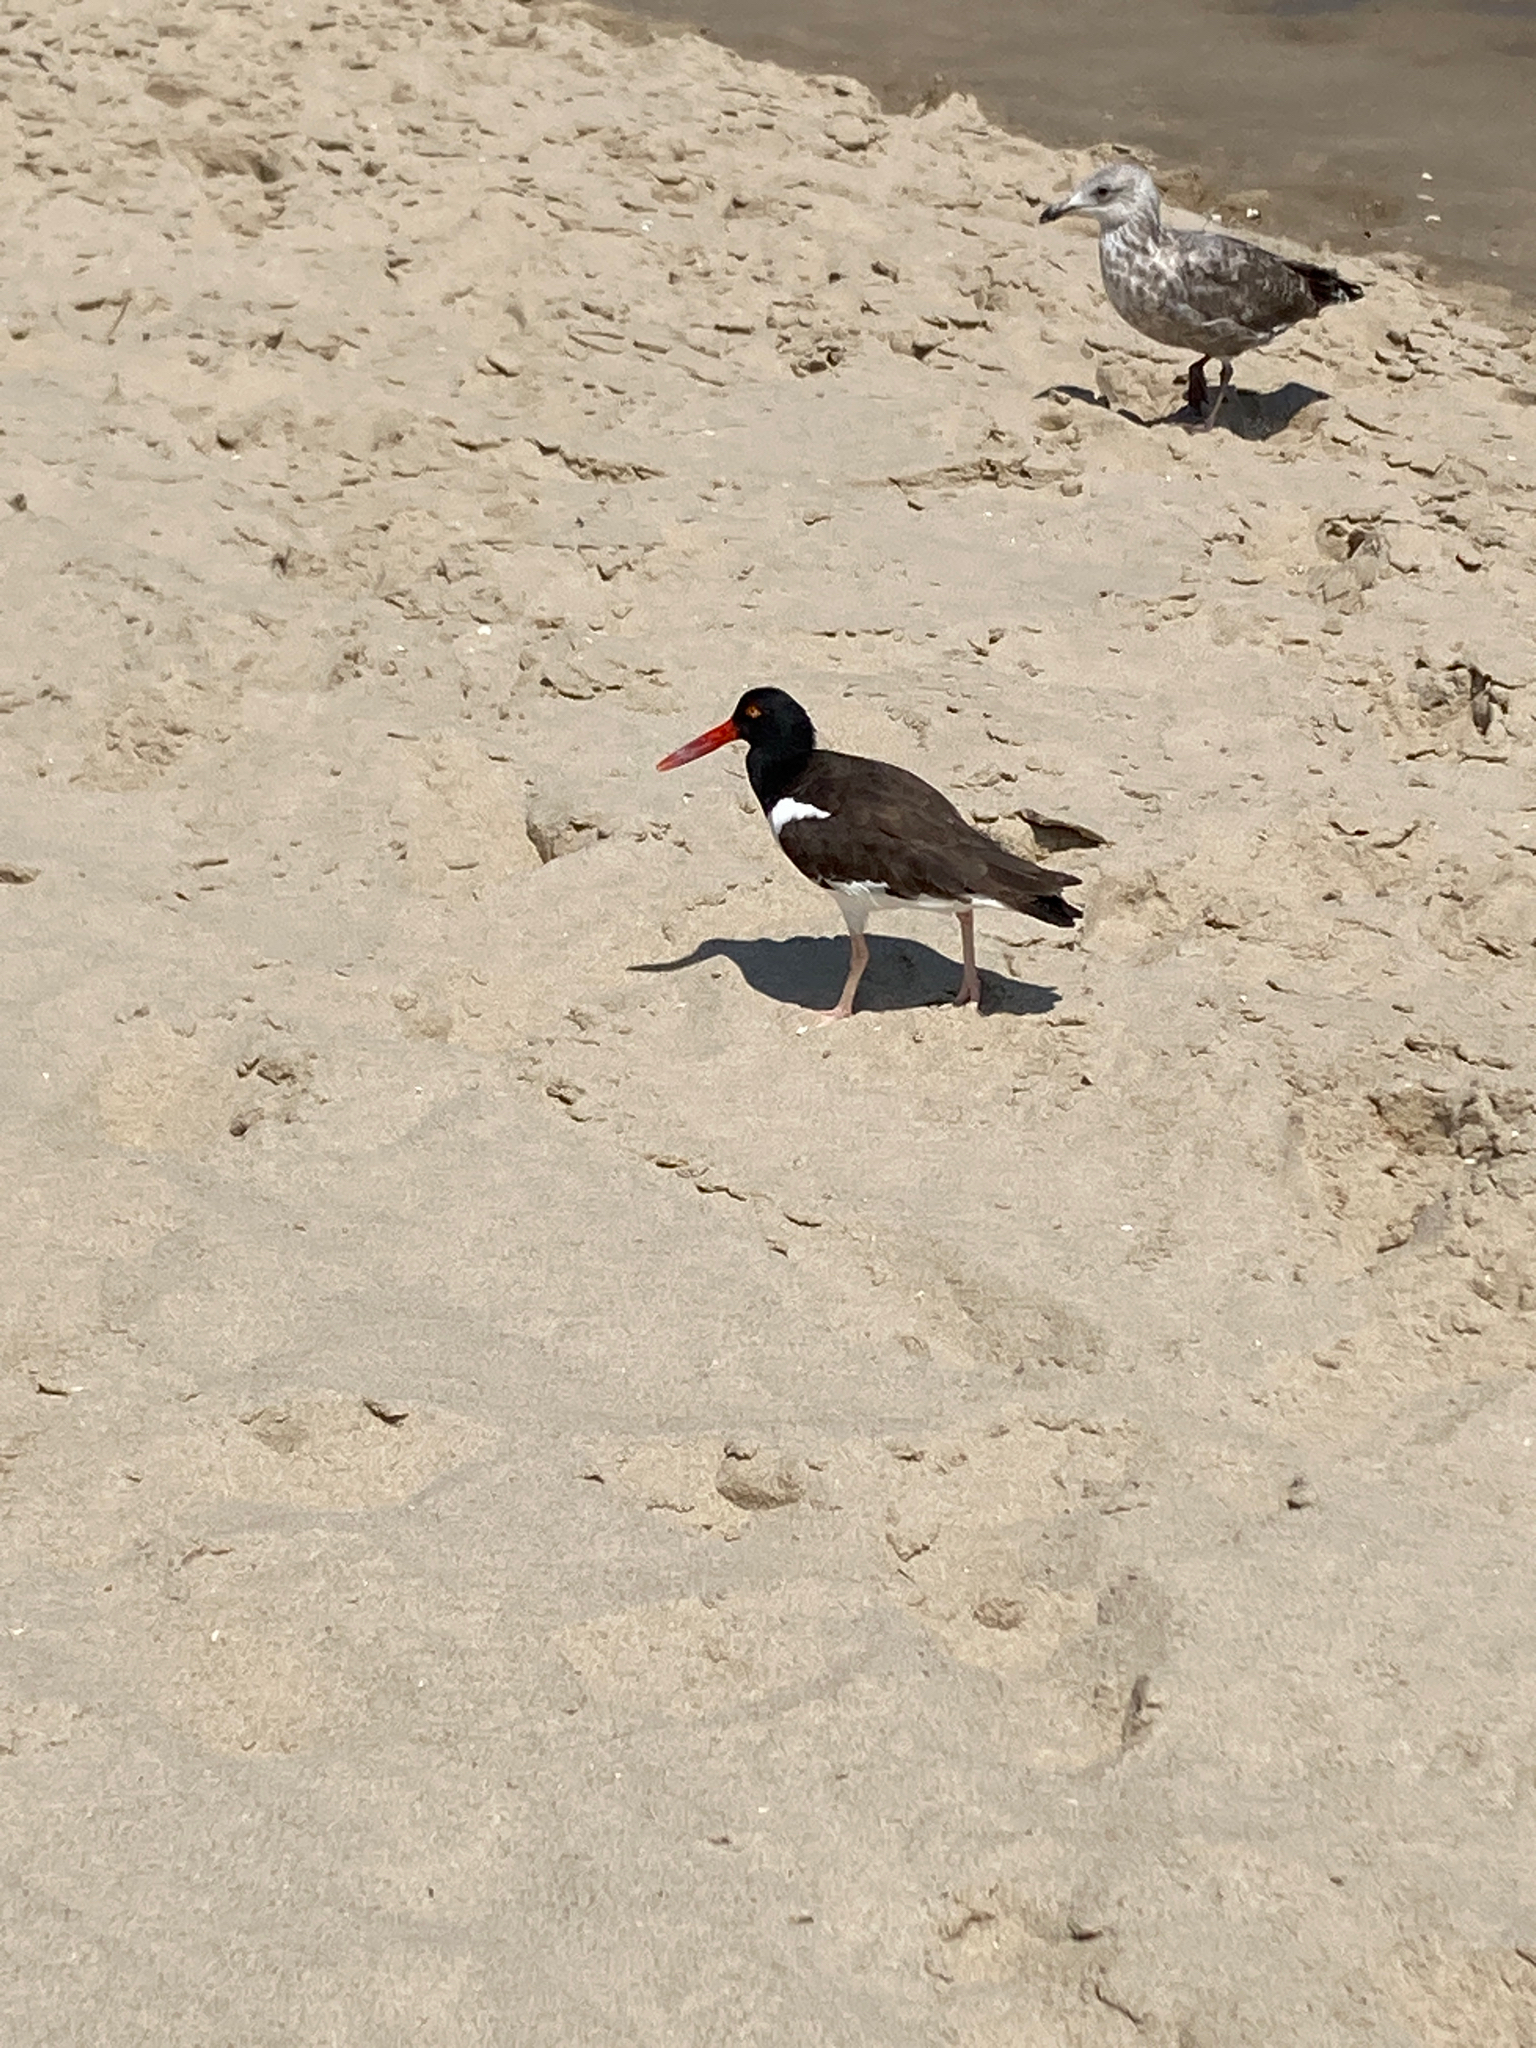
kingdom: Animalia
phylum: Chordata
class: Aves
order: Charadriiformes
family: Haematopodidae
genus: Haematopus
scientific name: Haematopus palliatus
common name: American oystercatcher
